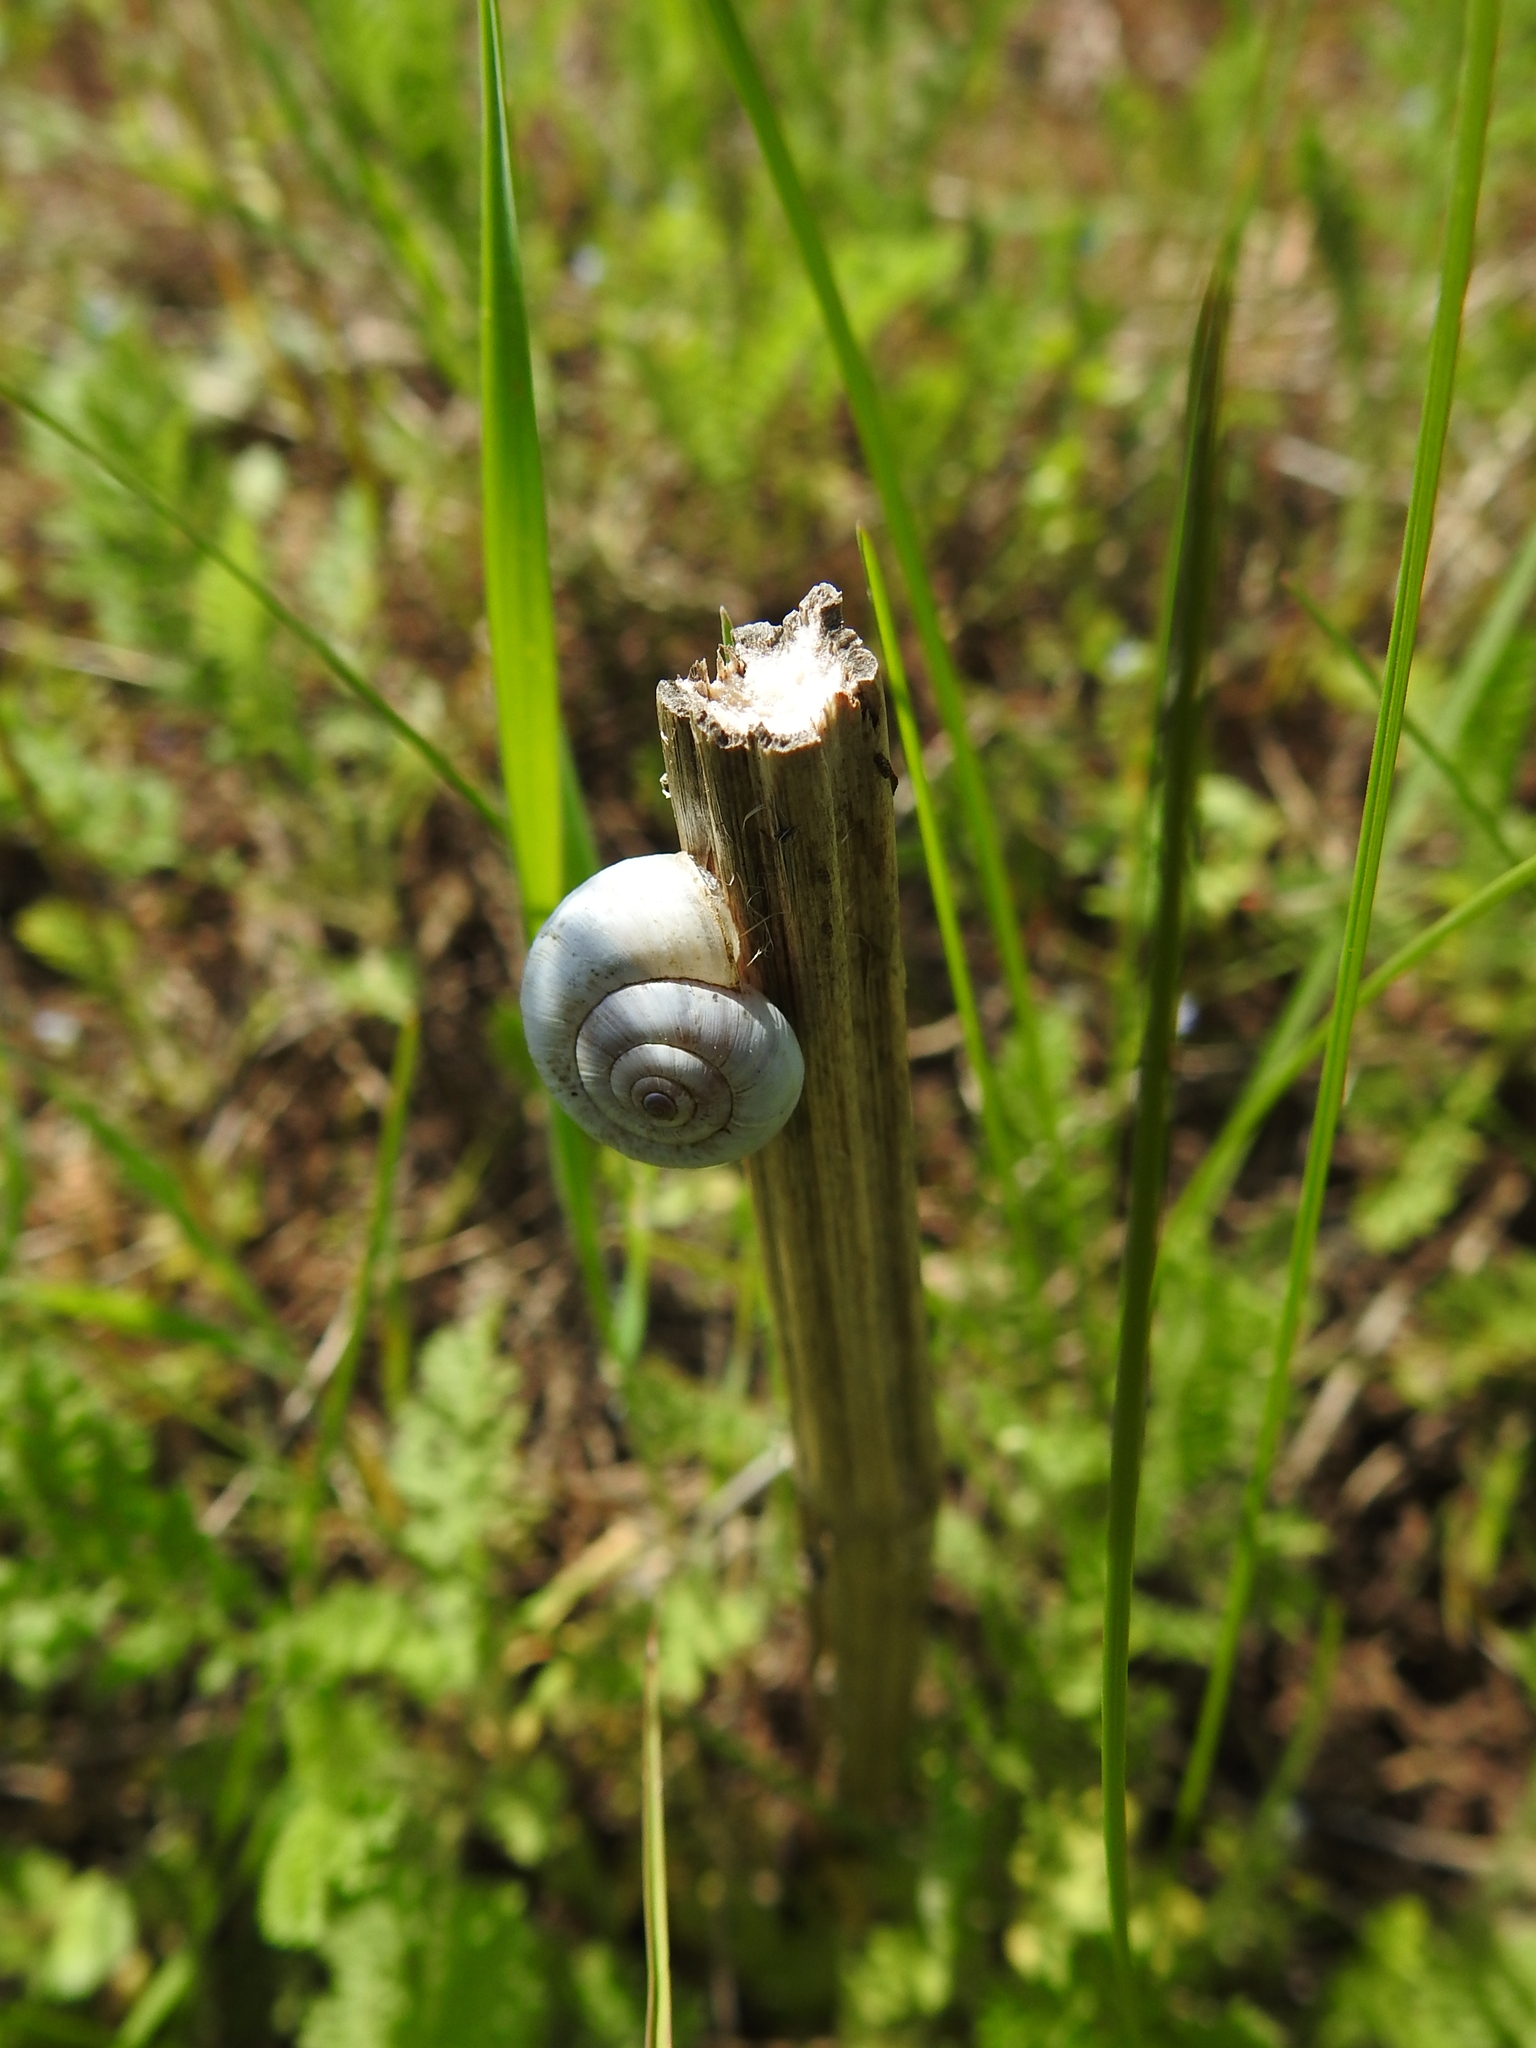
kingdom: Animalia
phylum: Mollusca
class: Gastropoda
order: Stylommatophora
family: Geomitridae
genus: Xeropicta
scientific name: Xeropicta derbentina
